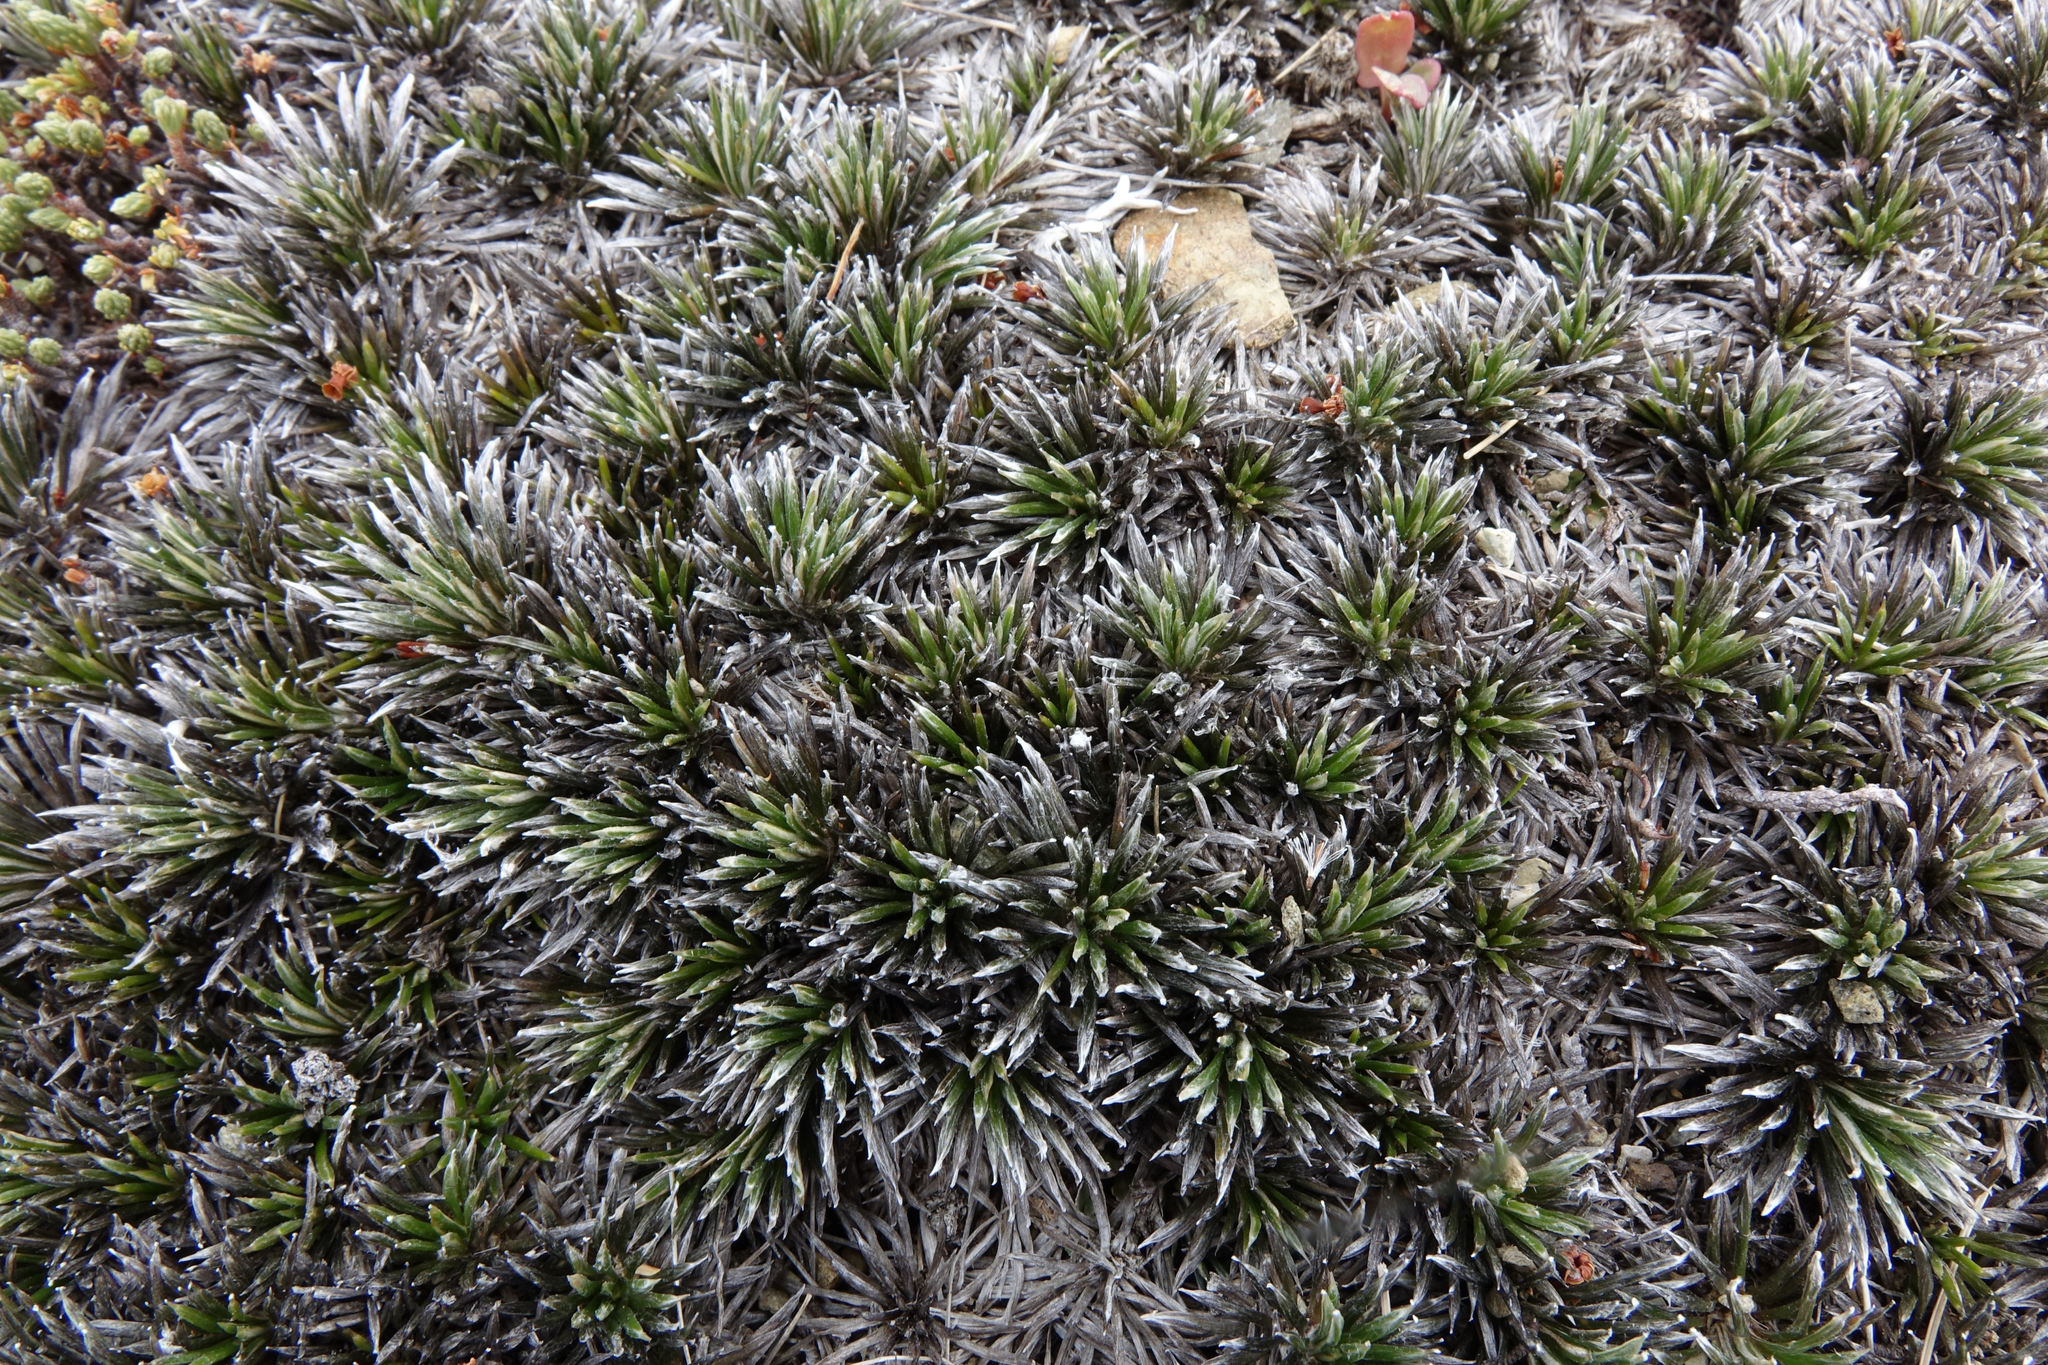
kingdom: Plantae
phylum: Tracheophyta
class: Magnoliopsida
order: Asterales
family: Asteraceae
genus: Celmisia
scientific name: Celmisia laricifolia
